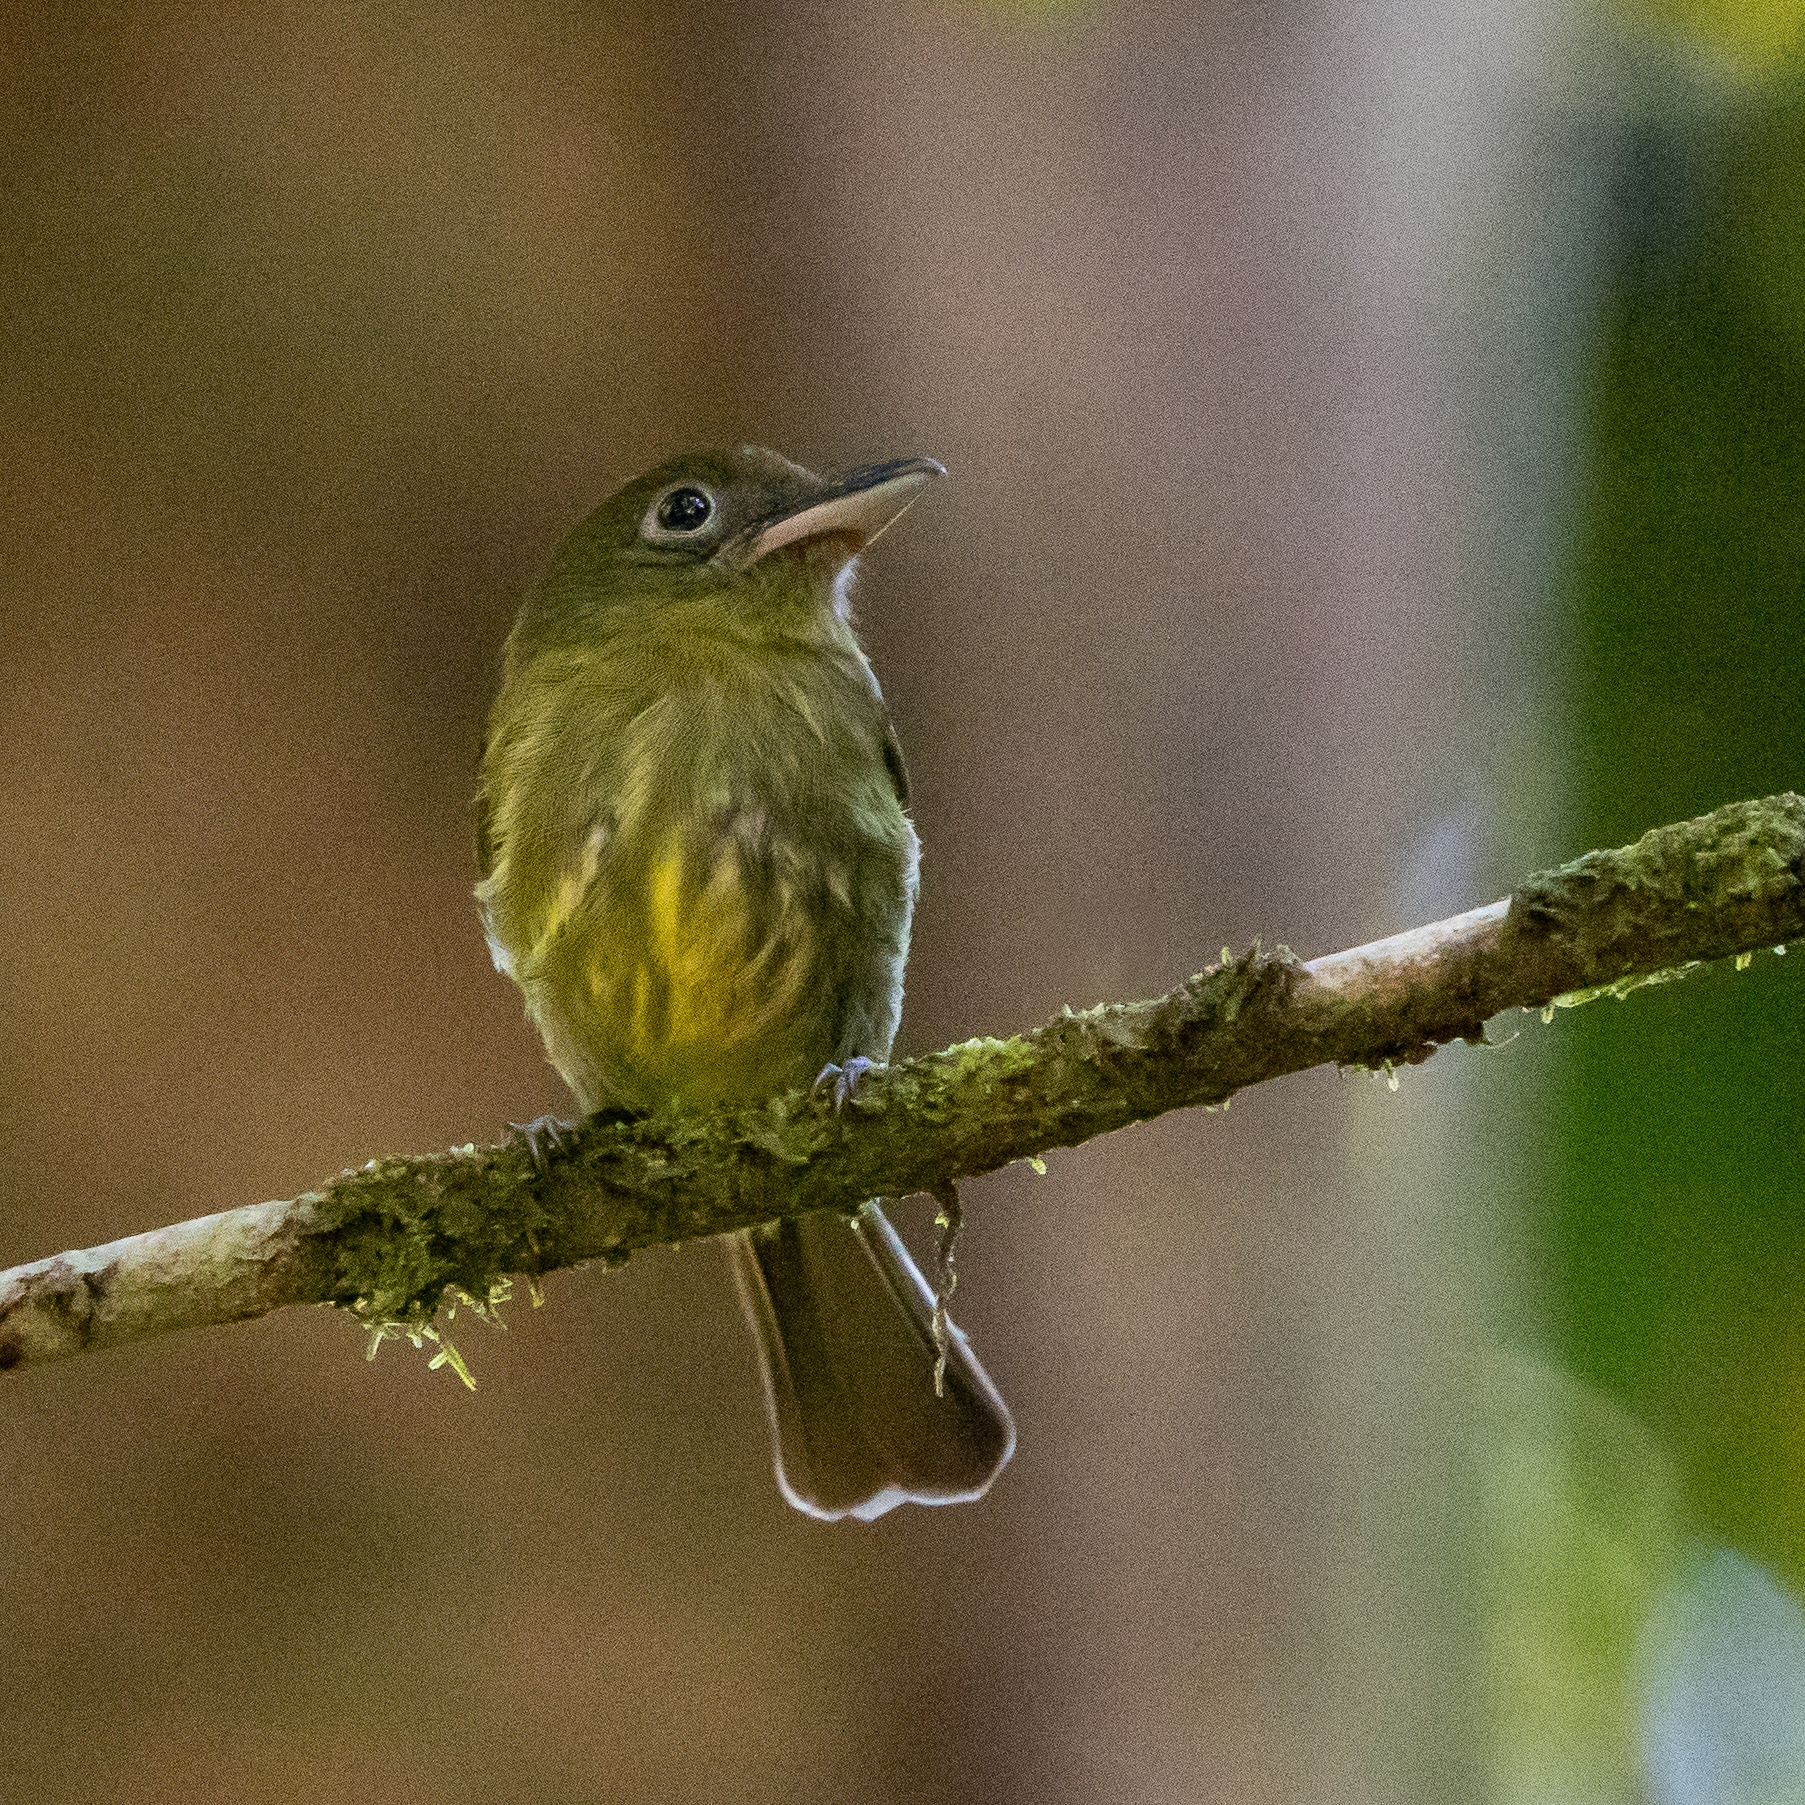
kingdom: Animalia
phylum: Chordata
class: Aves
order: Passeriformes
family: Tyrannidae
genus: Rhynchocyclus
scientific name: Rhynchocyclus pacificus
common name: Pacific flatbill
